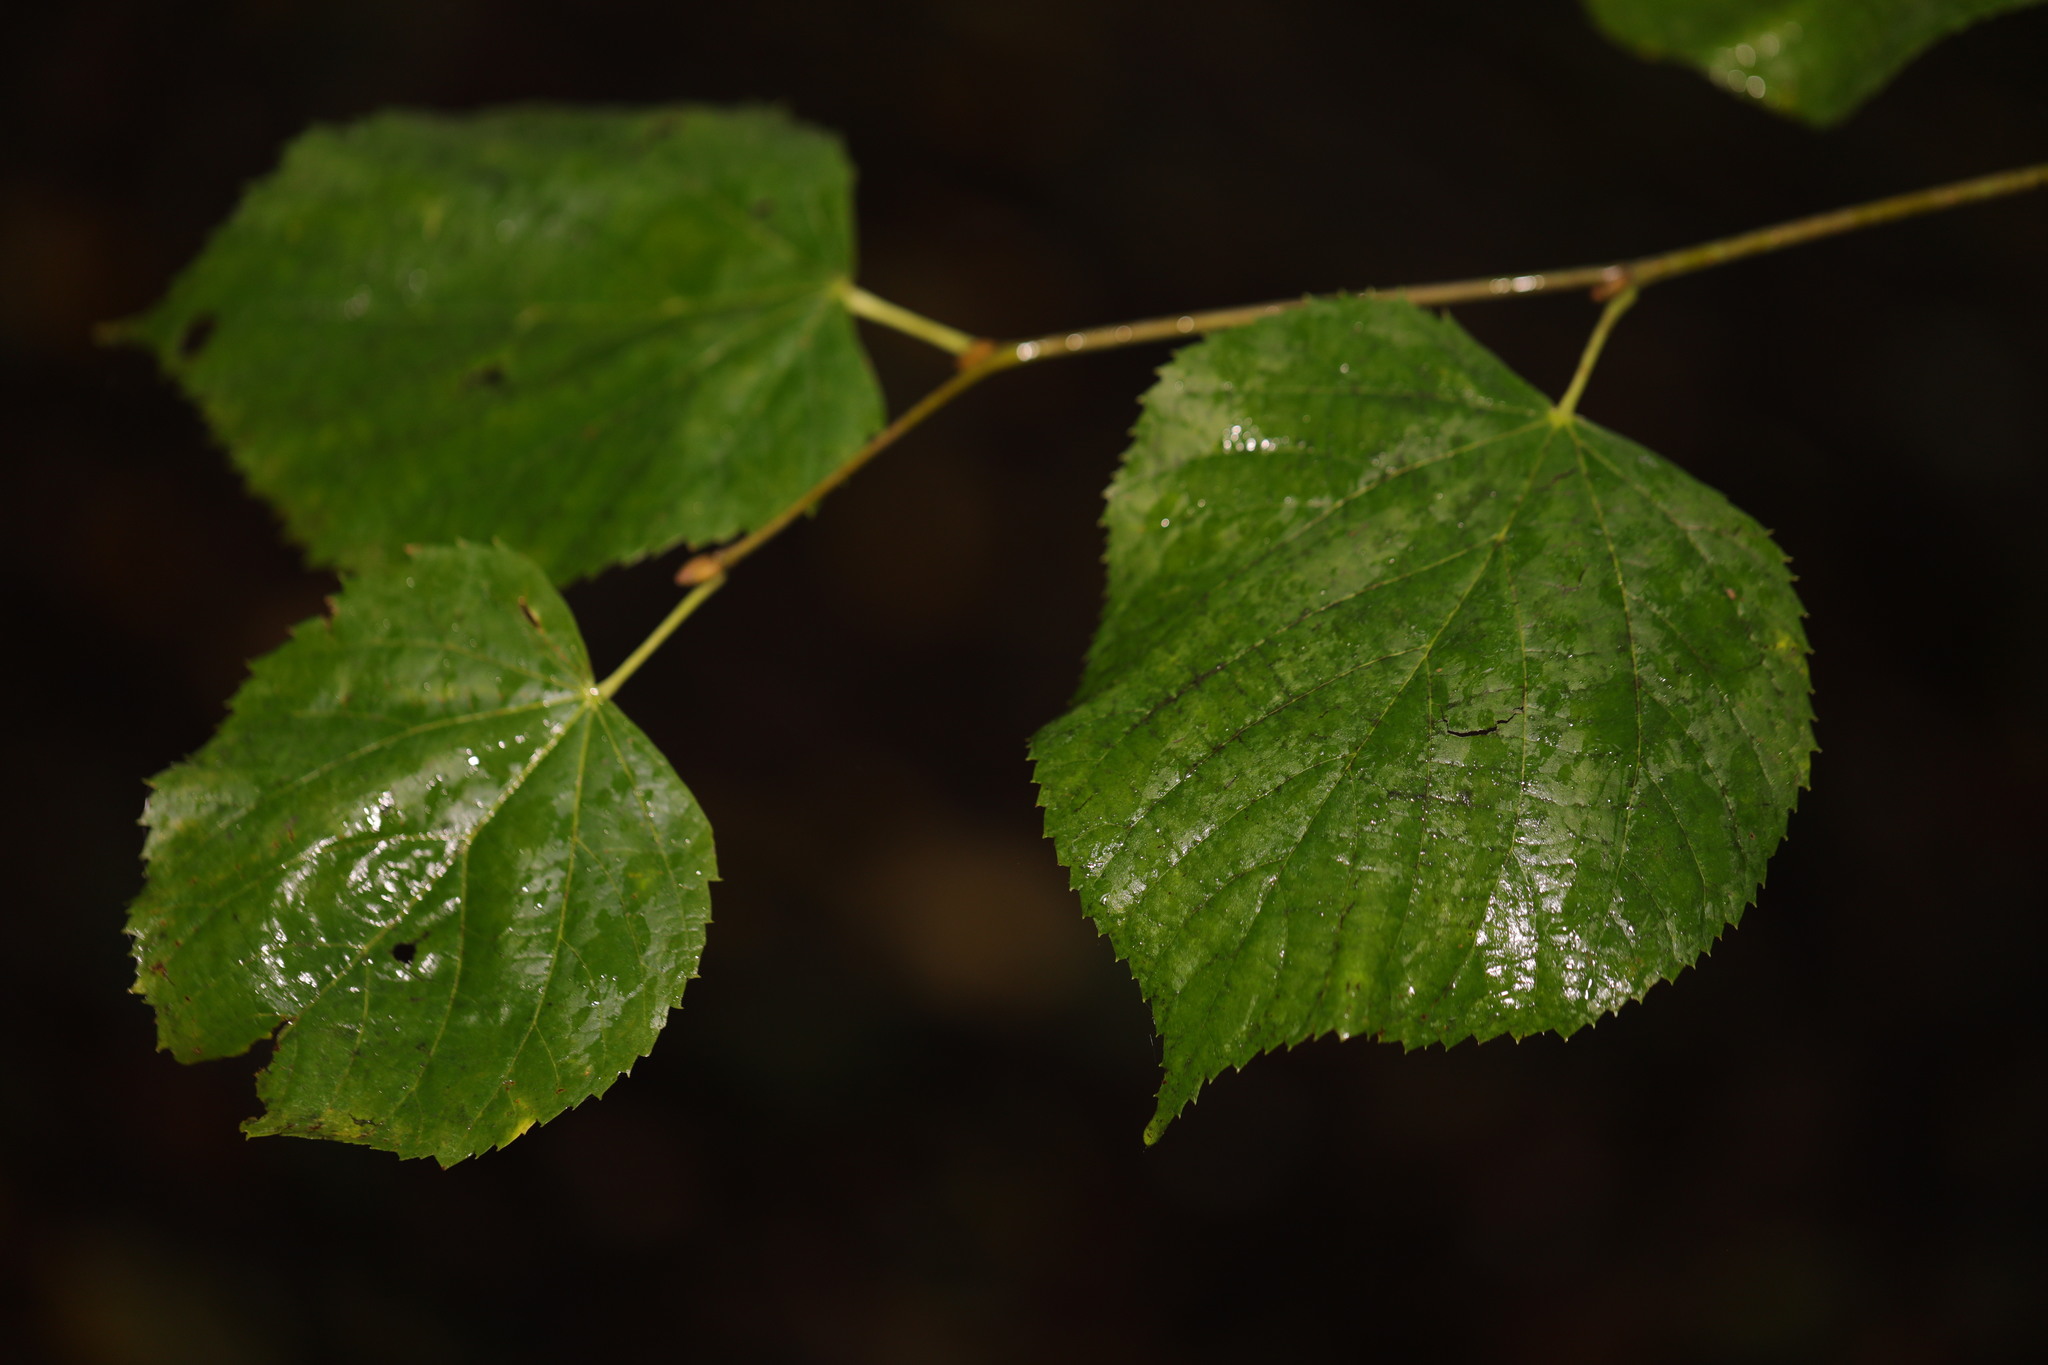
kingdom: Plantae
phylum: Tracheophyta
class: Magnoliopsida
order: Malvales
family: Malvaceae
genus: Tilia
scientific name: Tilia europaea
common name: European linden
